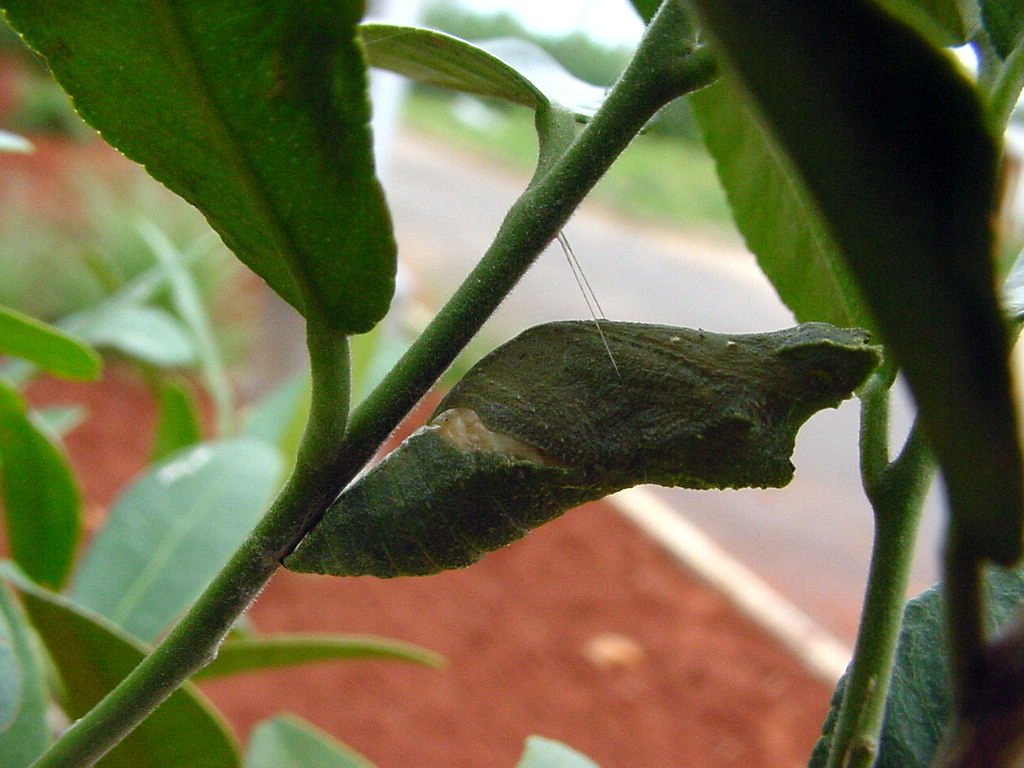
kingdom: Animalia
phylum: Arthropoda
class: Insecta
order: Lepidoptera
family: Papilionidae
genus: Papilio
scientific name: Papilio polytes
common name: Common mormon
